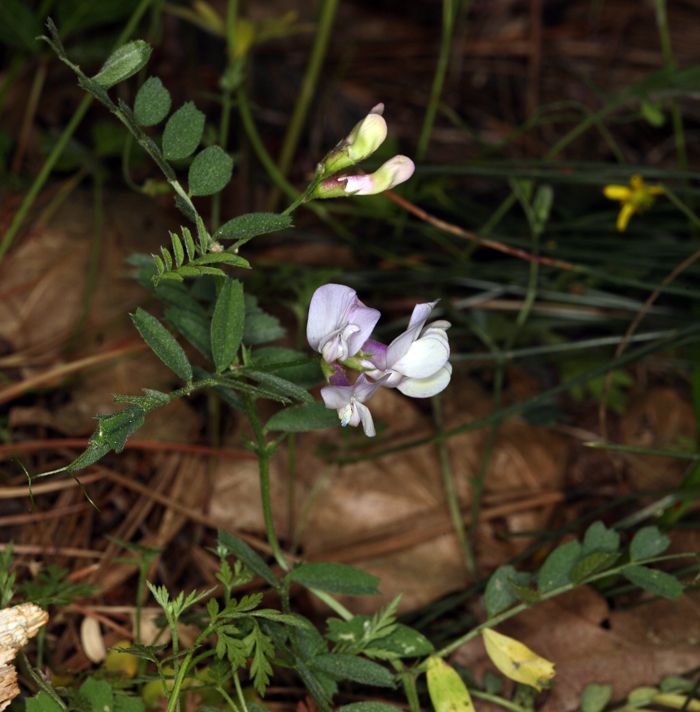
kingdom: Plantae
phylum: Tracheophyta
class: Magnoliopsida
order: Fabales
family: Fabaceae
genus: Vicia
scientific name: Vicia americana
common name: American vetch
